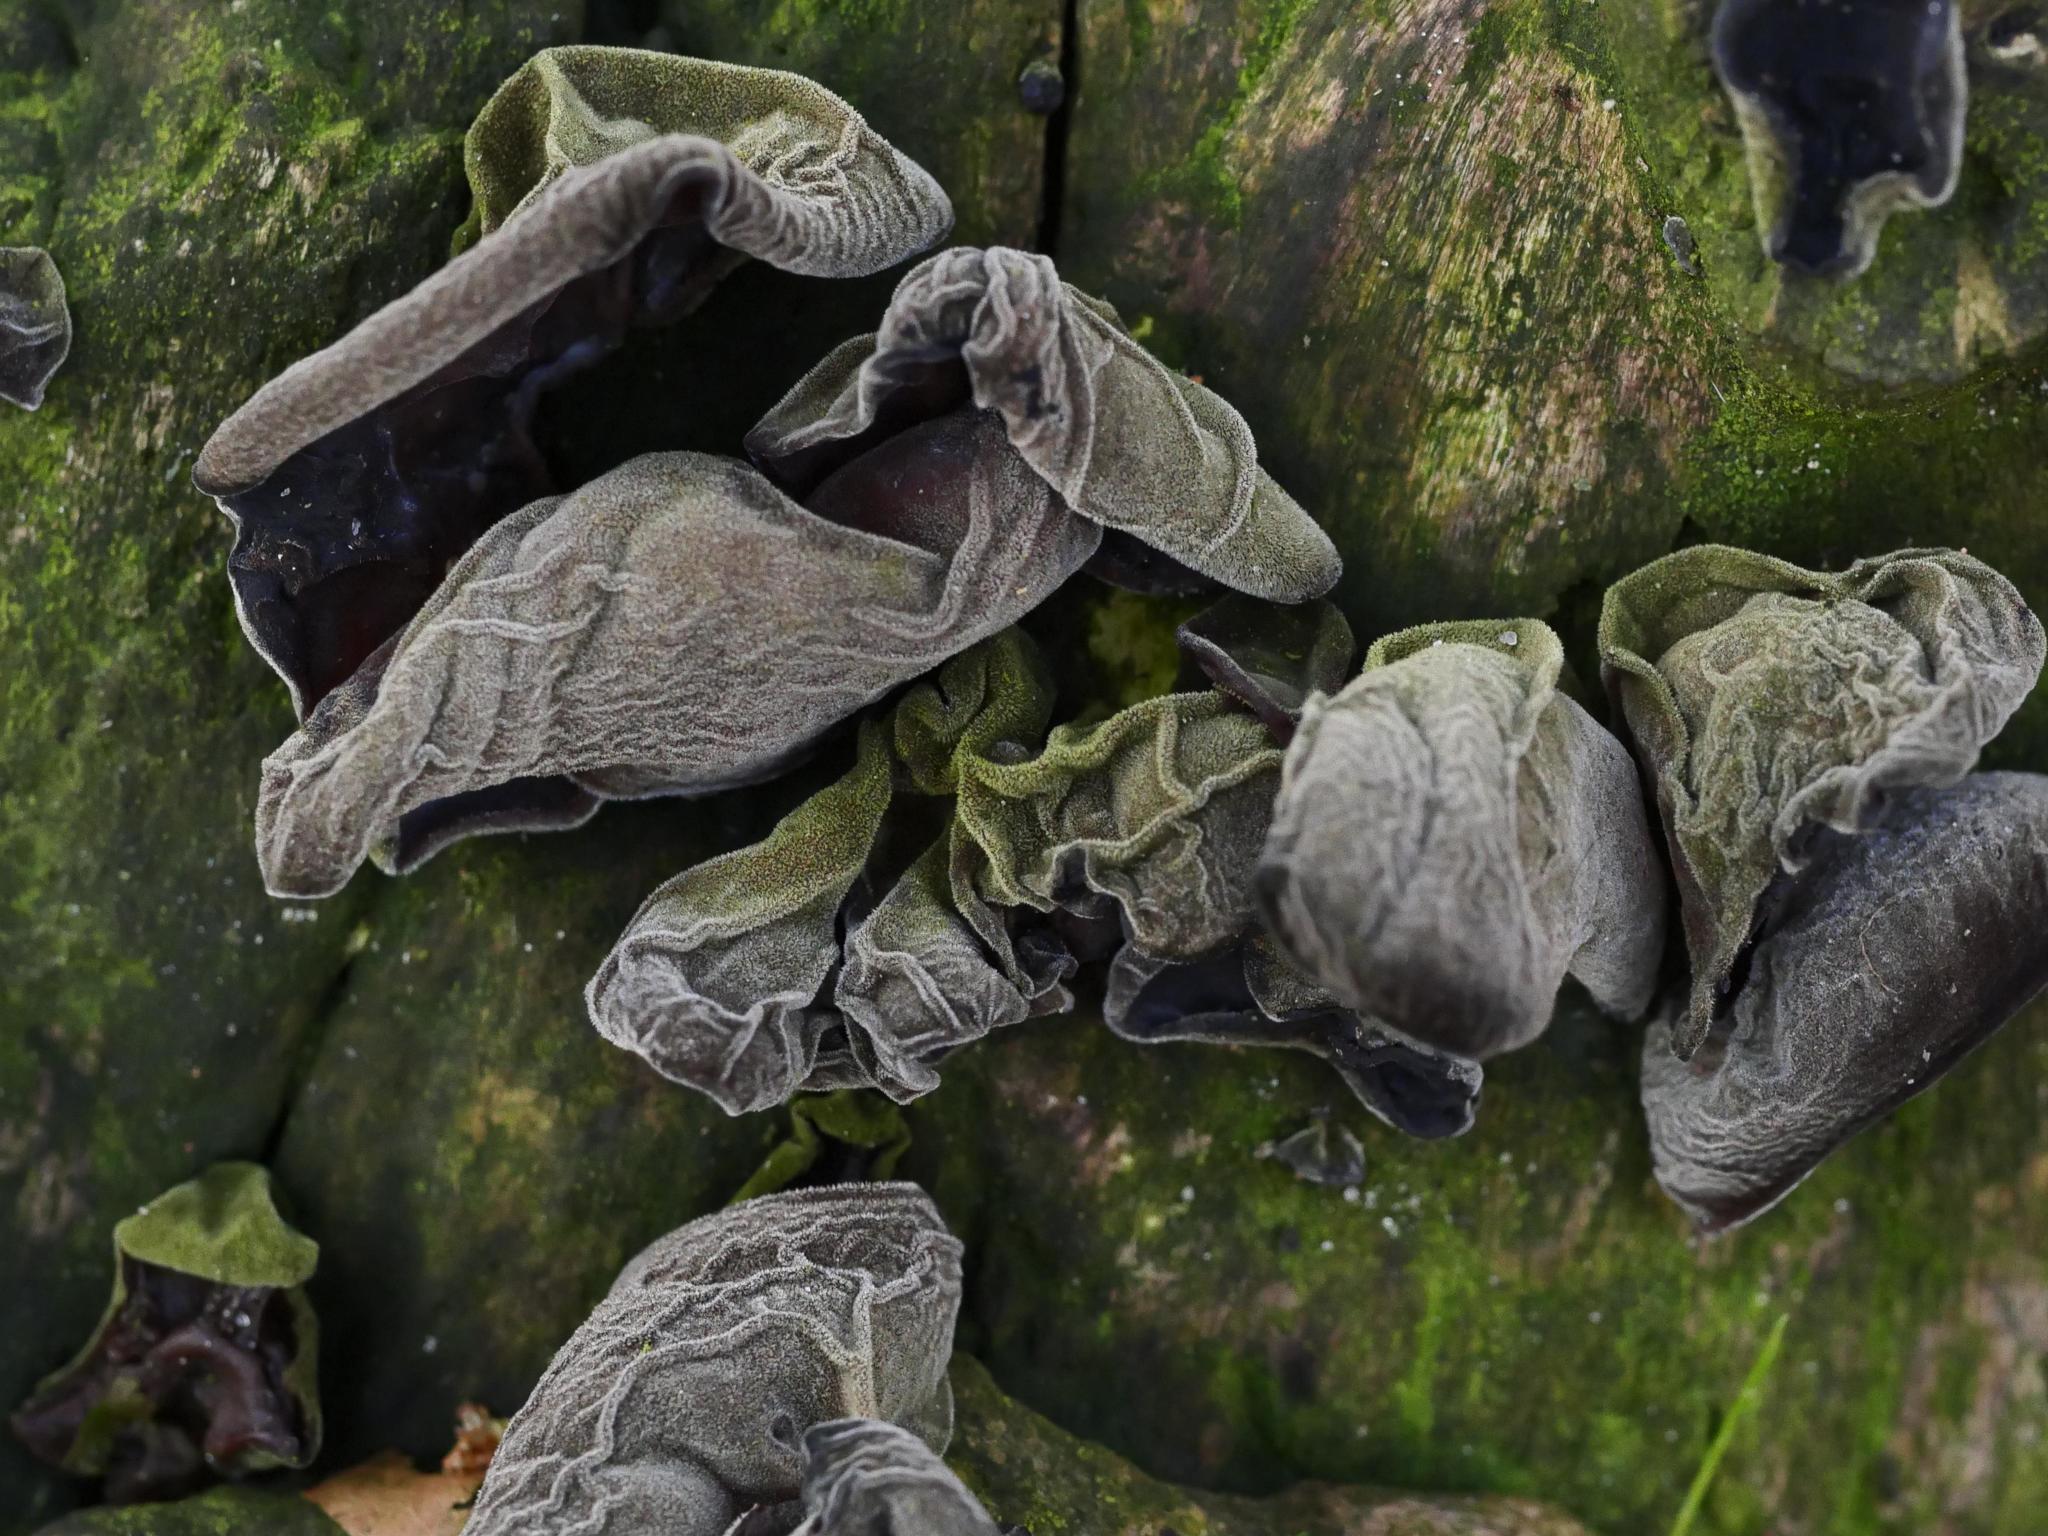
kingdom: Fungi
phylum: Basidiomycota
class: Agaricomycetes
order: Auriculariales
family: Auriculariaceae
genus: Auricularia
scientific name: Auricularia auricula-judae
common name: Jelly ear
